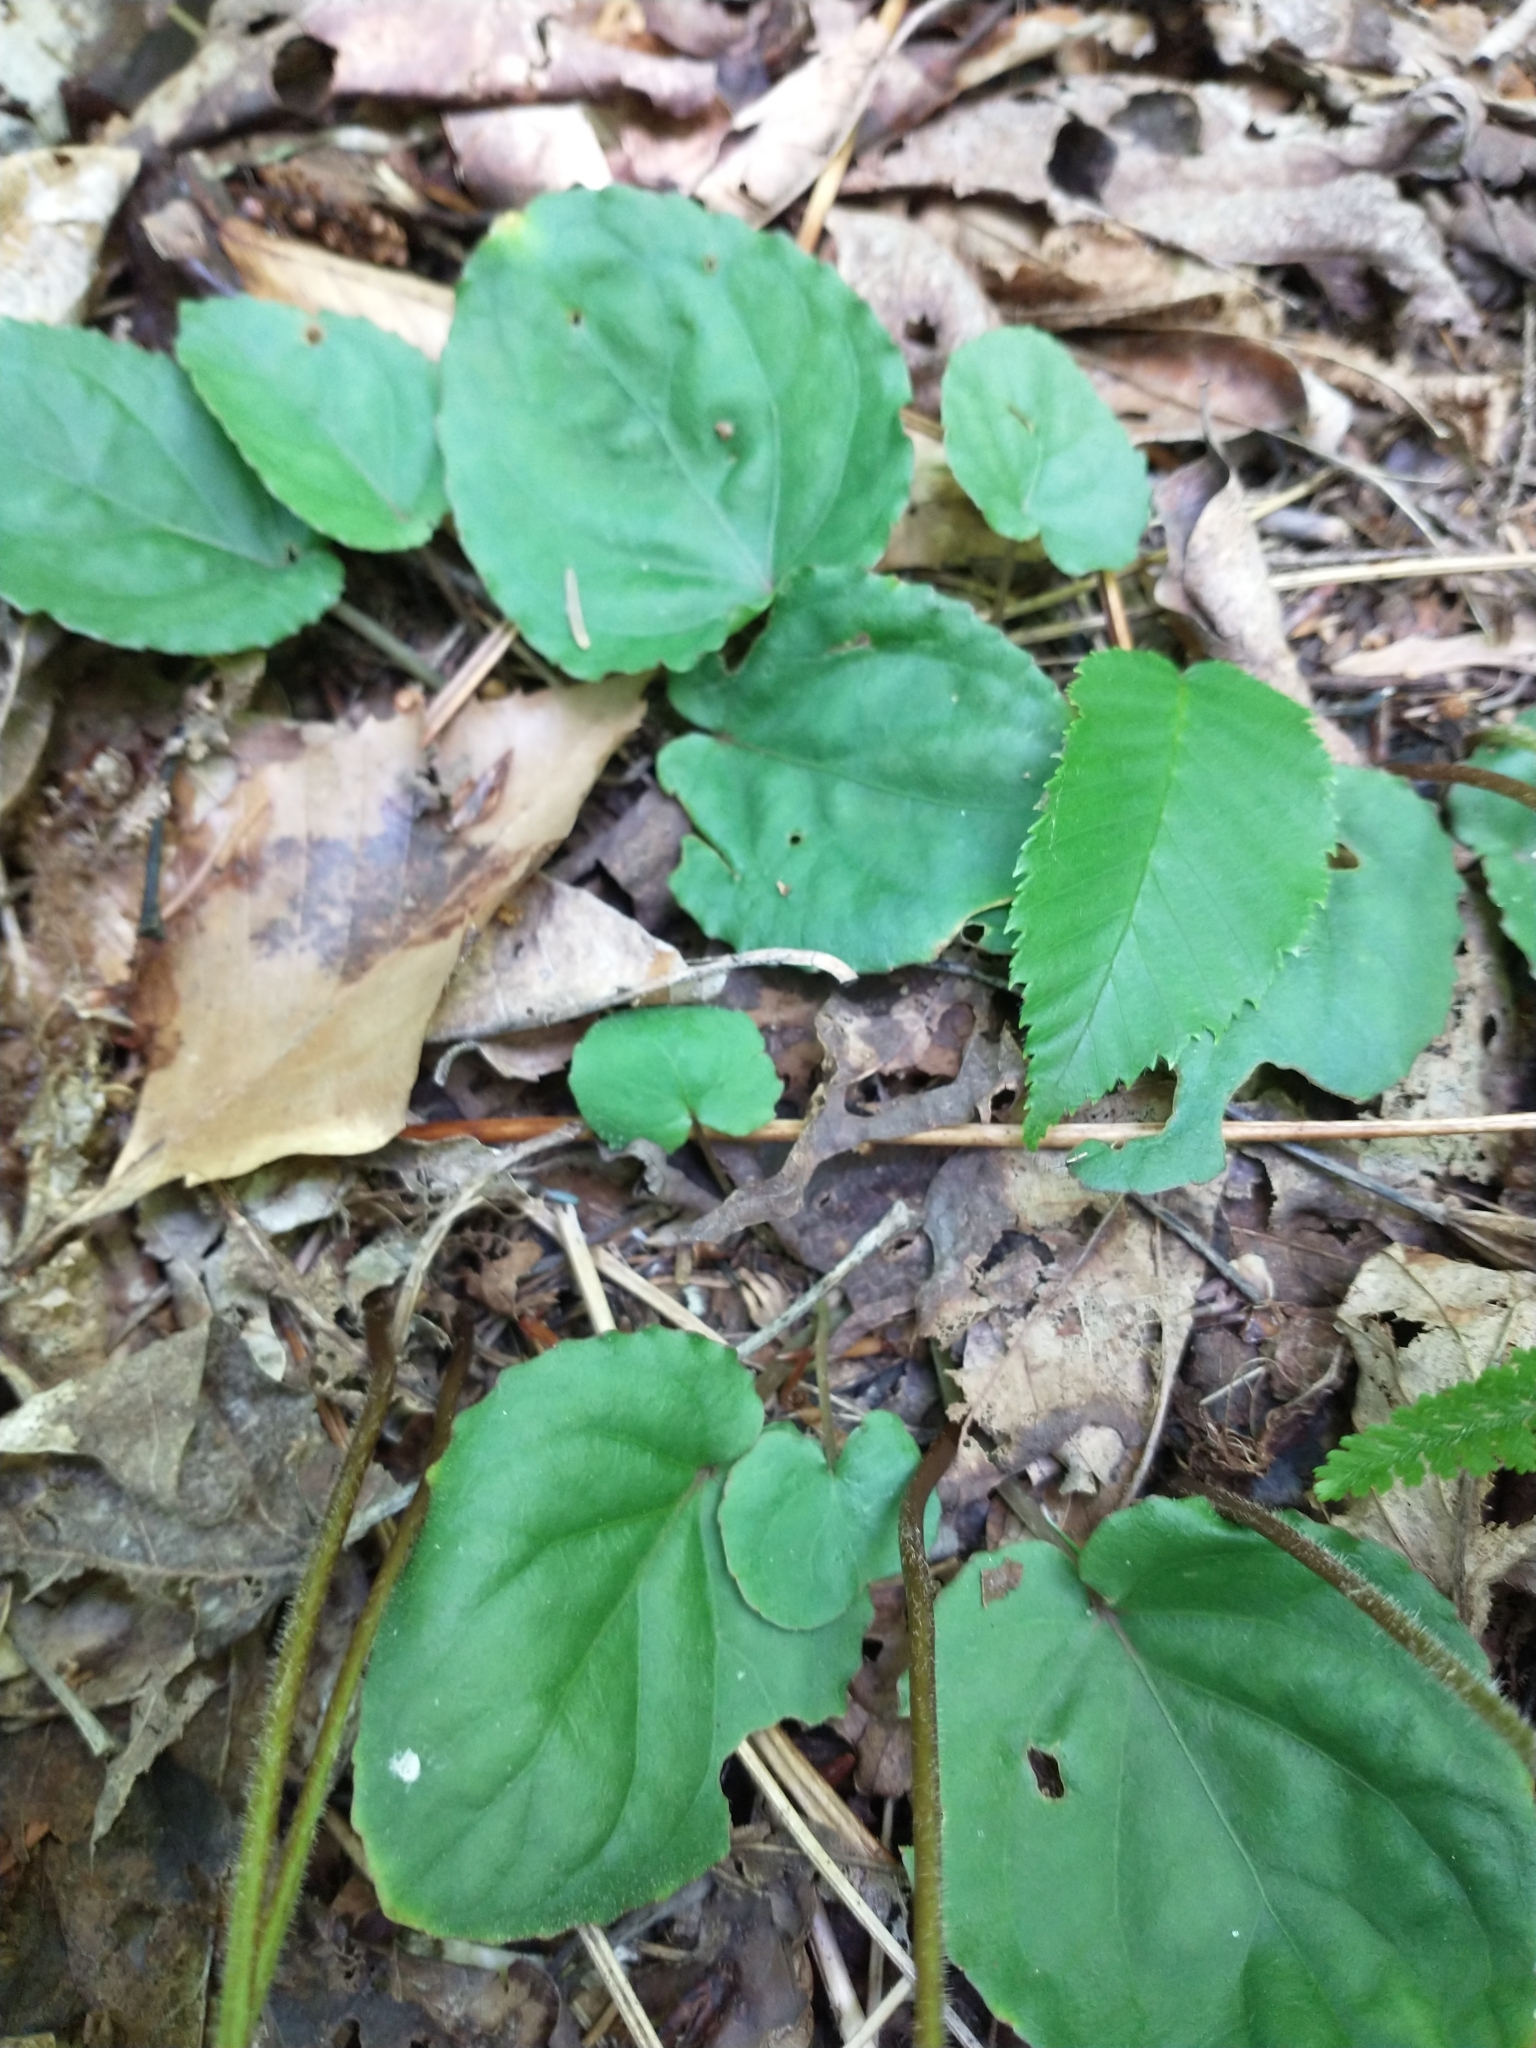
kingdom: Plantae
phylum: Tracheophyta
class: Magnoliopsida
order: Malpighiales
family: Violaceae
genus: Viola
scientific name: Viola rotundifolia
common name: Early yellow violet
